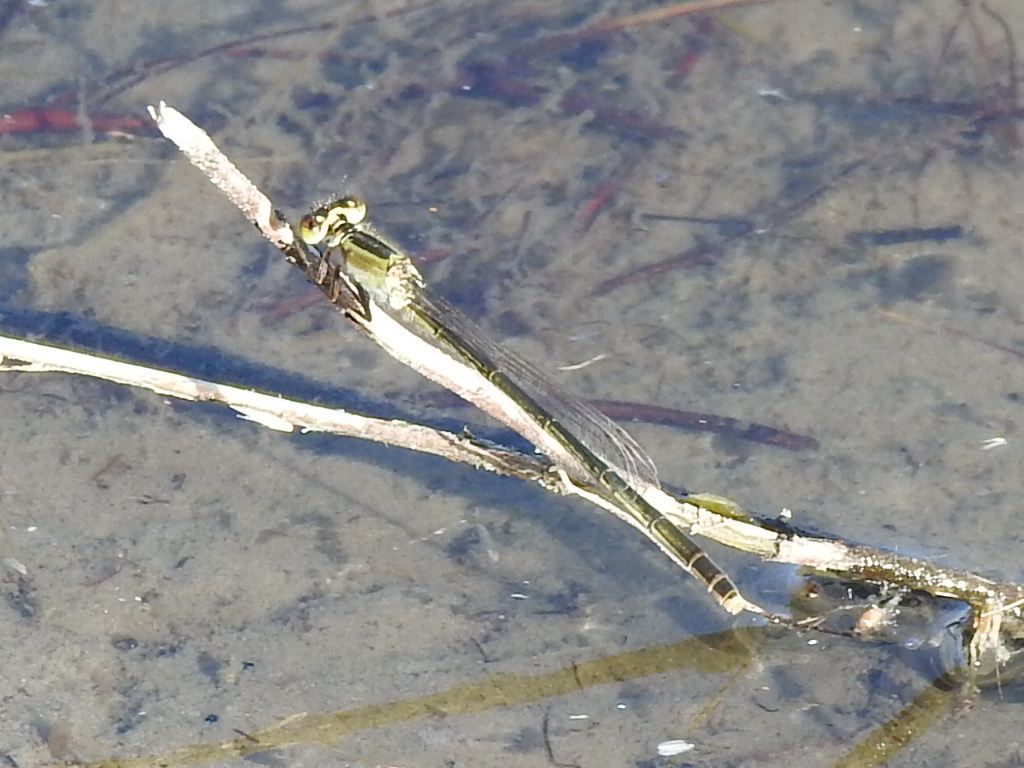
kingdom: Animalia
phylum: Arthropoda
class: Insecta
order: Odonata
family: Coenagrionidae
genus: Ischnura
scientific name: Ischnura ramburii
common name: Rambur's forktail
